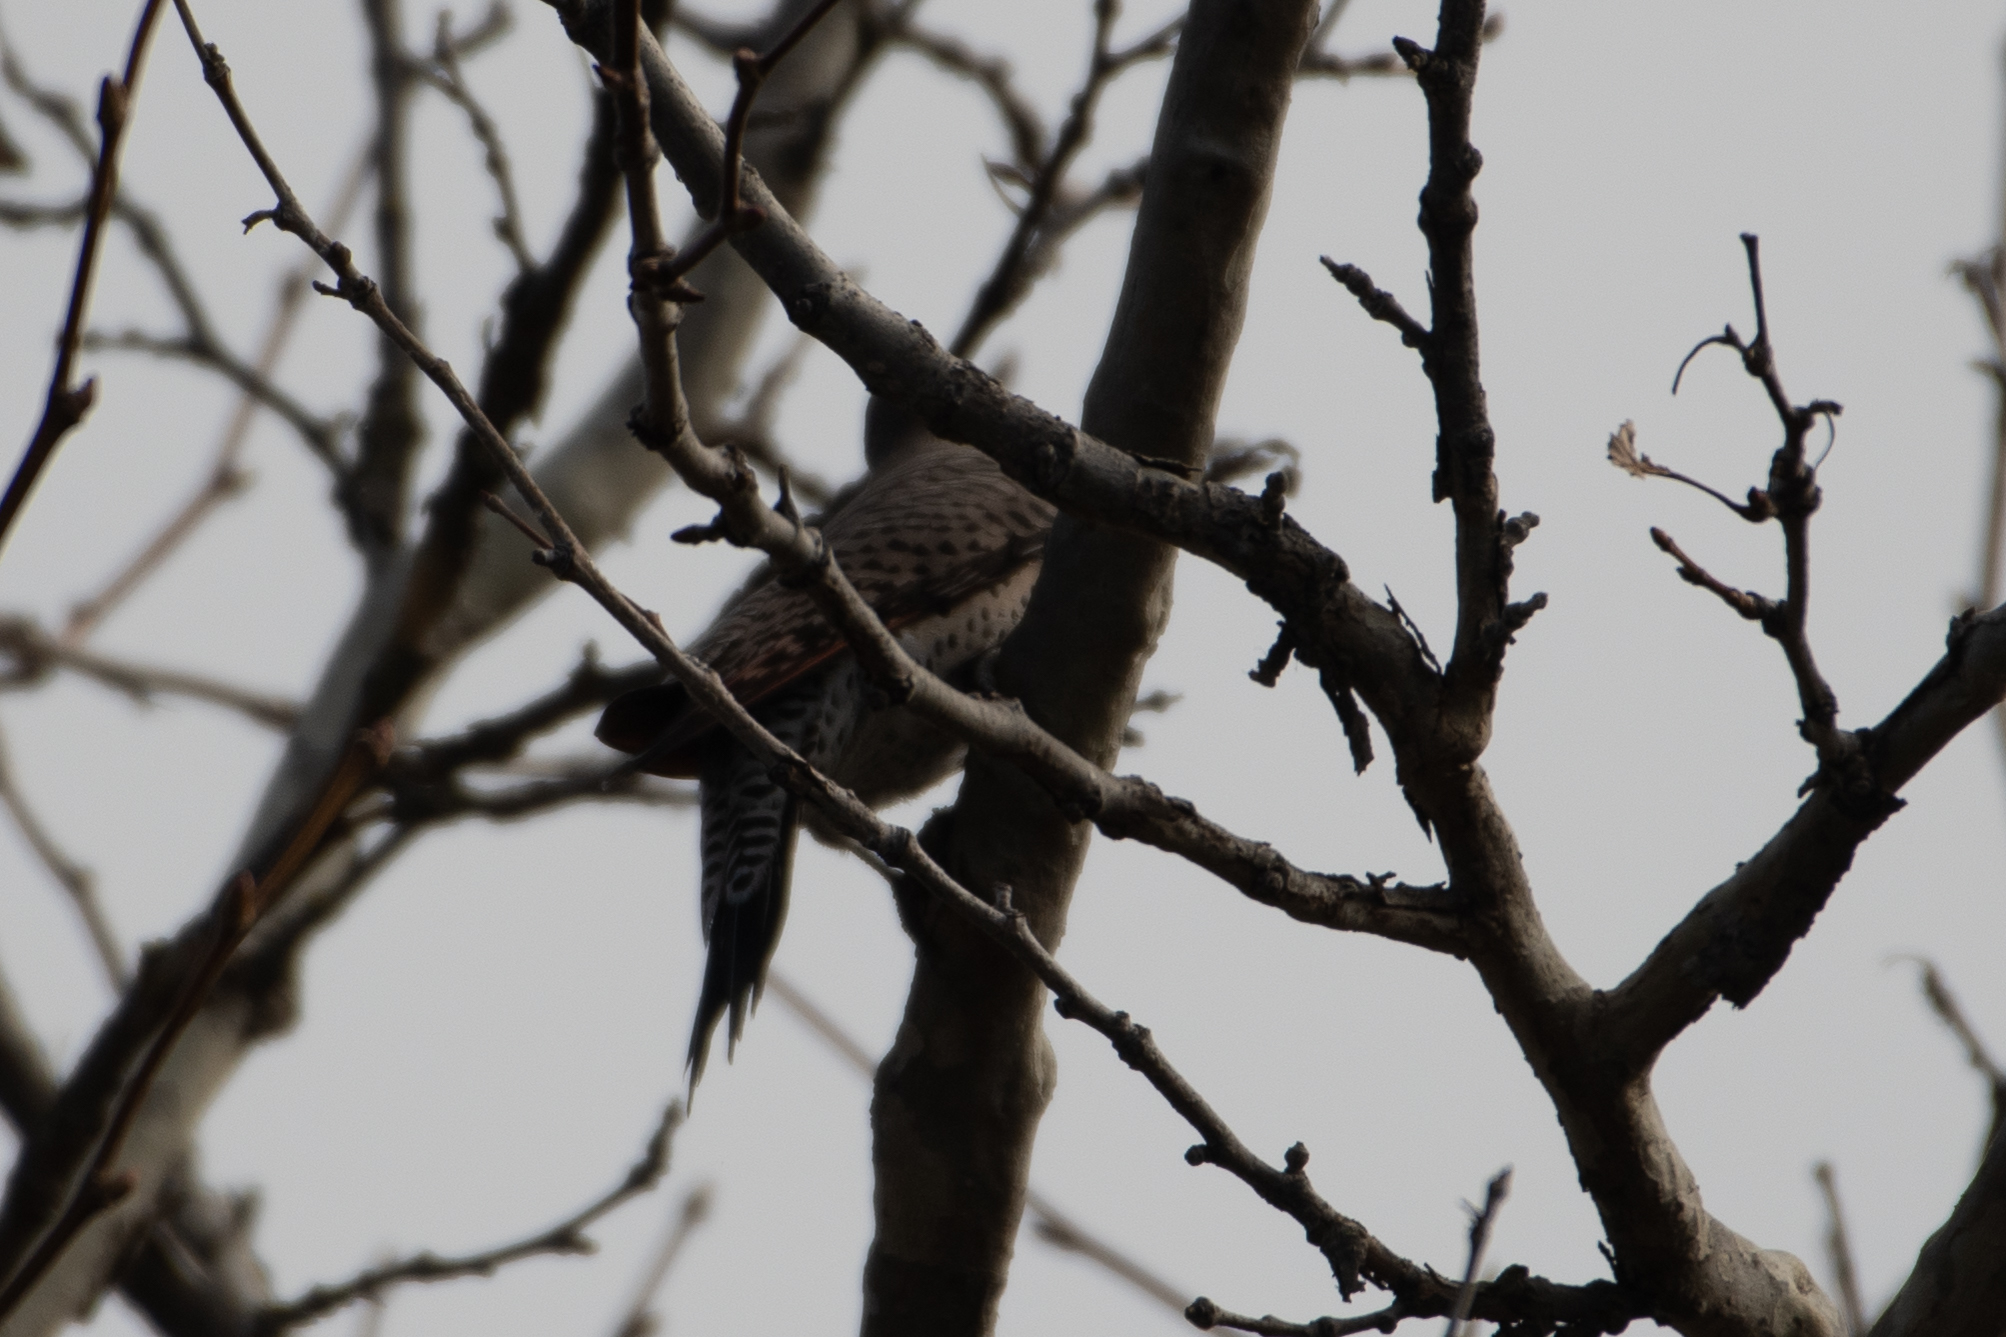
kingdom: Animalia
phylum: Chordata
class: Aves
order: Piciformes
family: Picidae
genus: Colaptes
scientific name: Colaptes auratus
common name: Northern flicker
